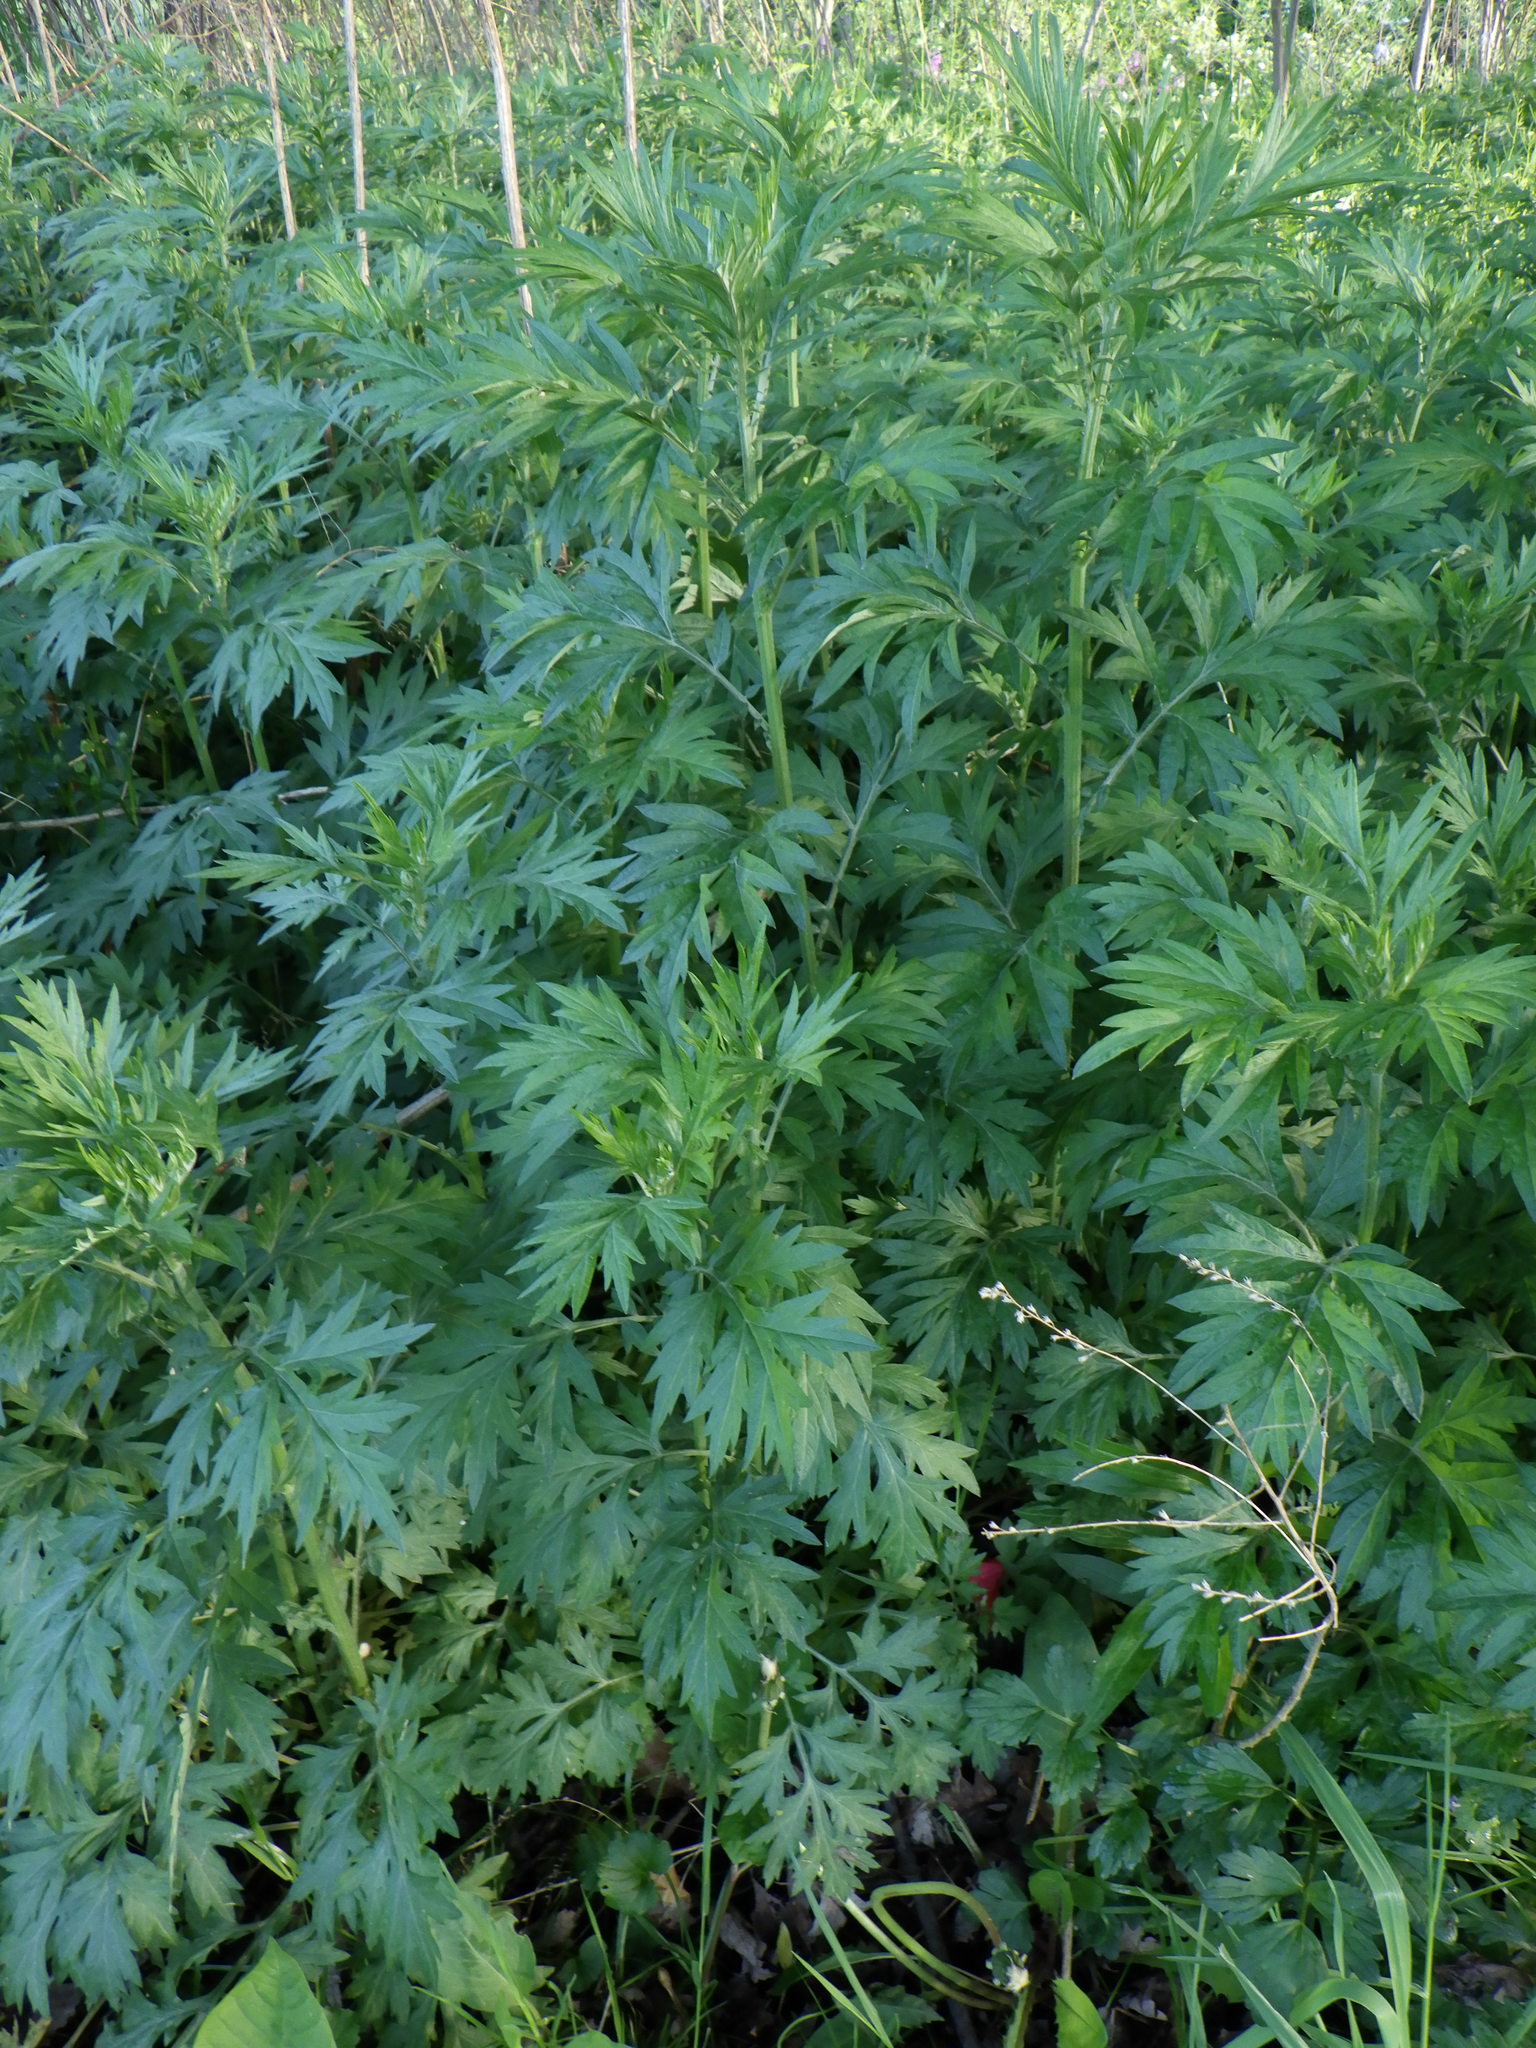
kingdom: Plantae
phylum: Tracheophyta
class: Magnoliopsida
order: Asterales
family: Asteraceae
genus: Artemisia
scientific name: Artemisia vulgaris
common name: Mugwort
